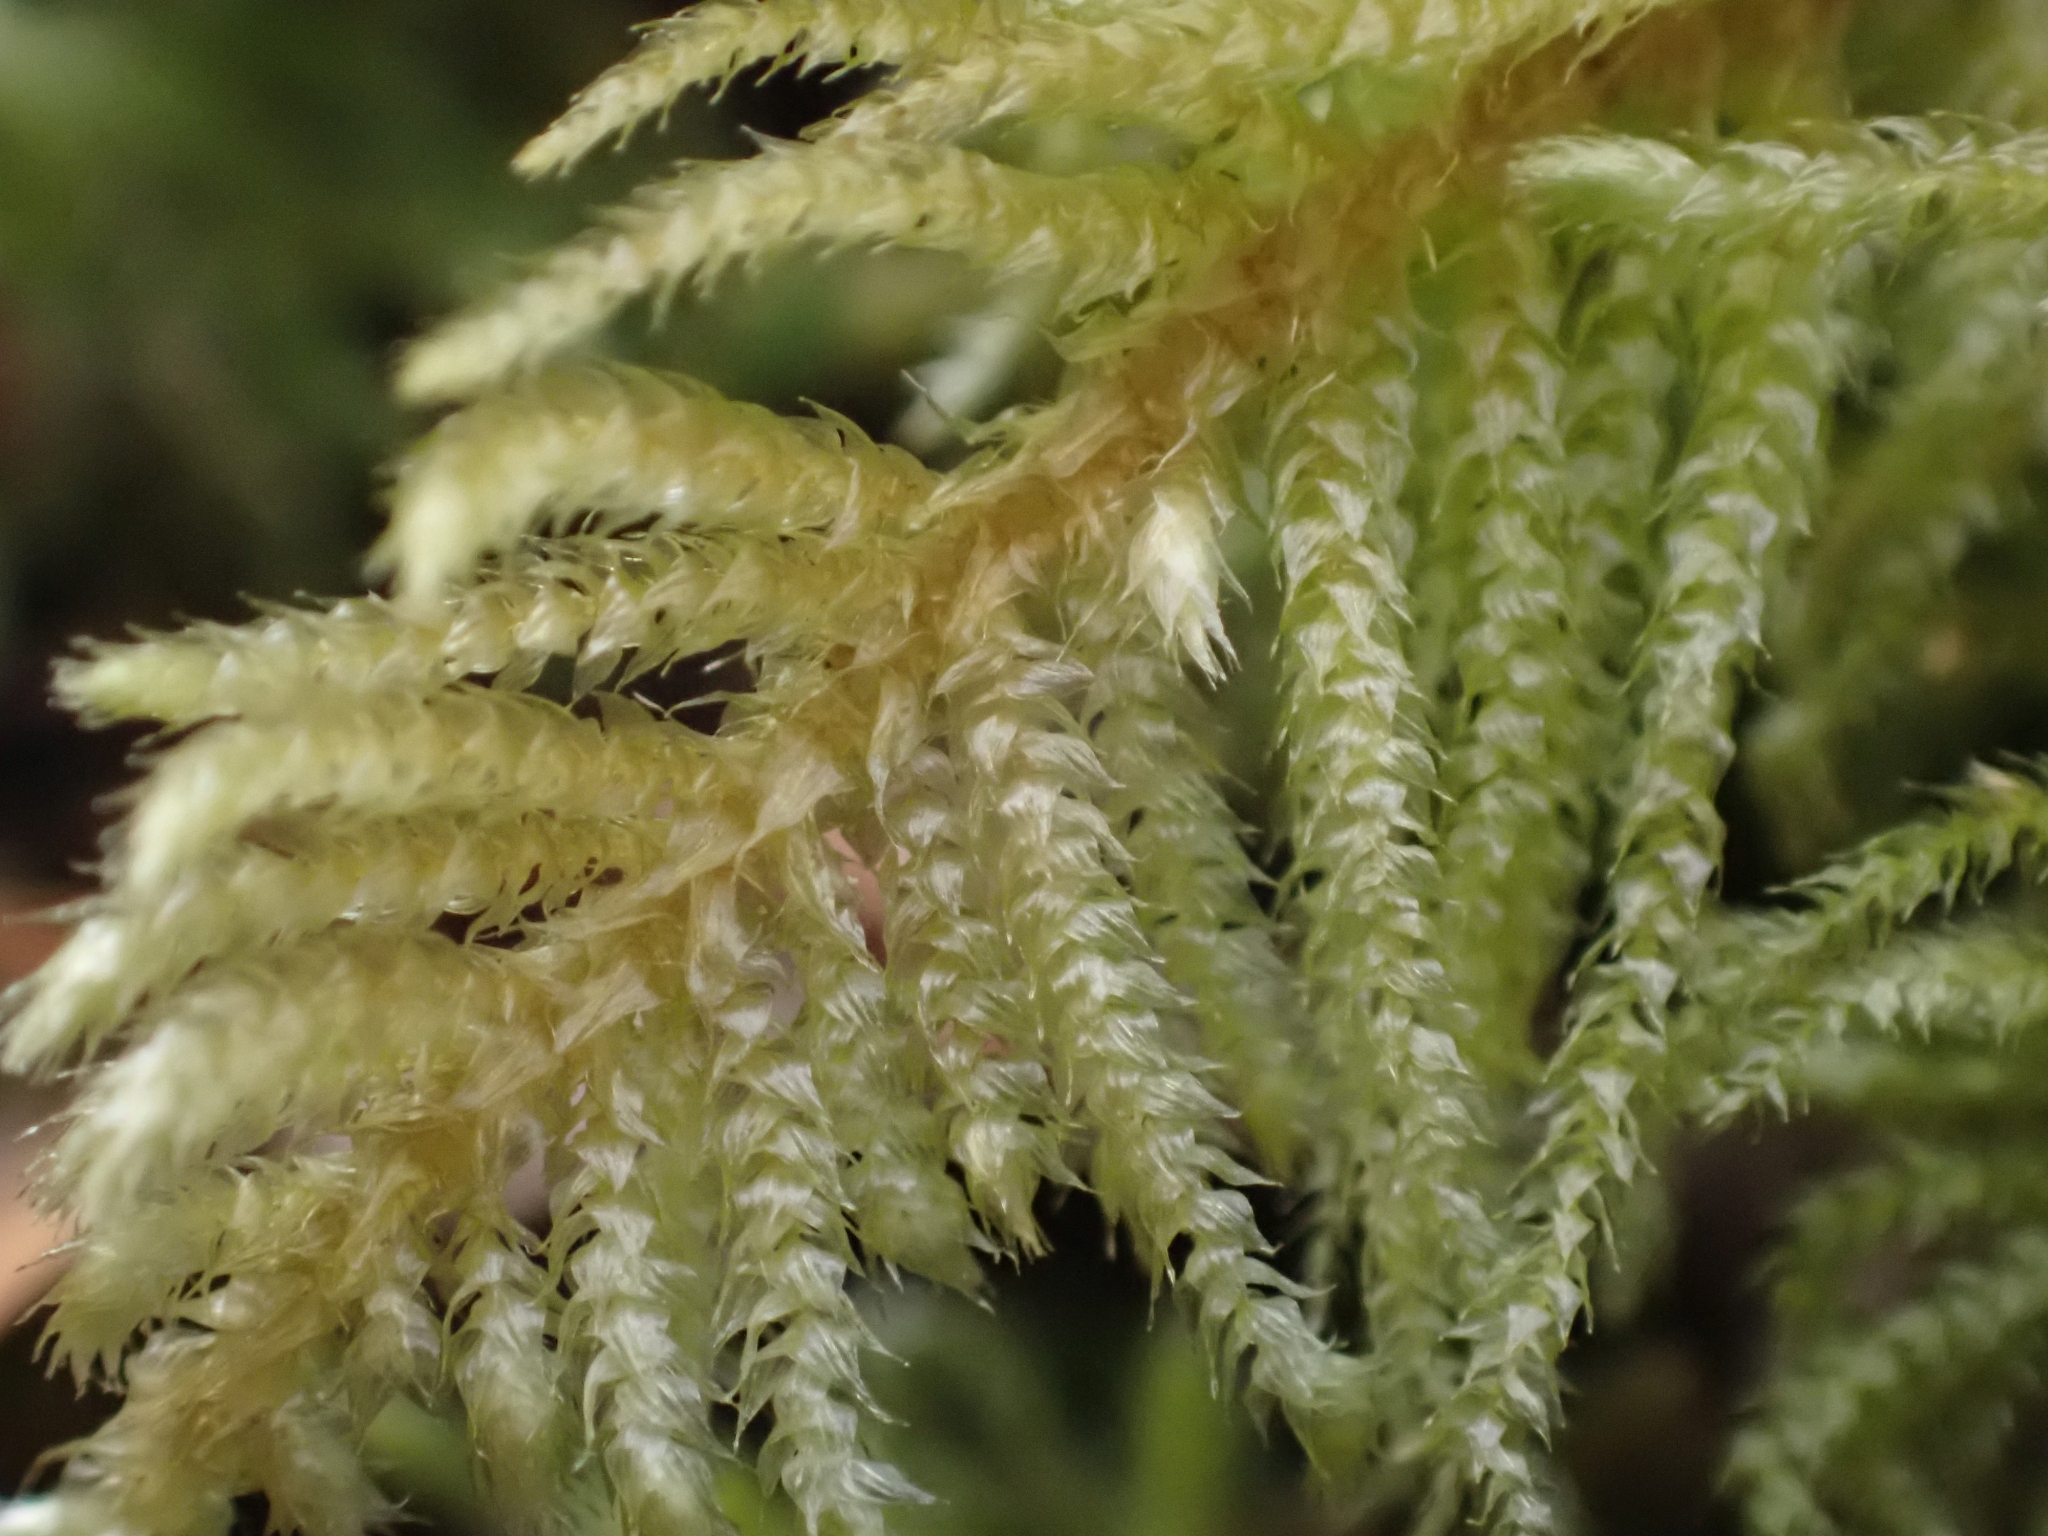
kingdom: Plantae
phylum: Bryophyta
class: Bryopsida
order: Hypnales
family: Brachytheciaceae
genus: Kindbergia
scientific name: Kindbergia oregana
